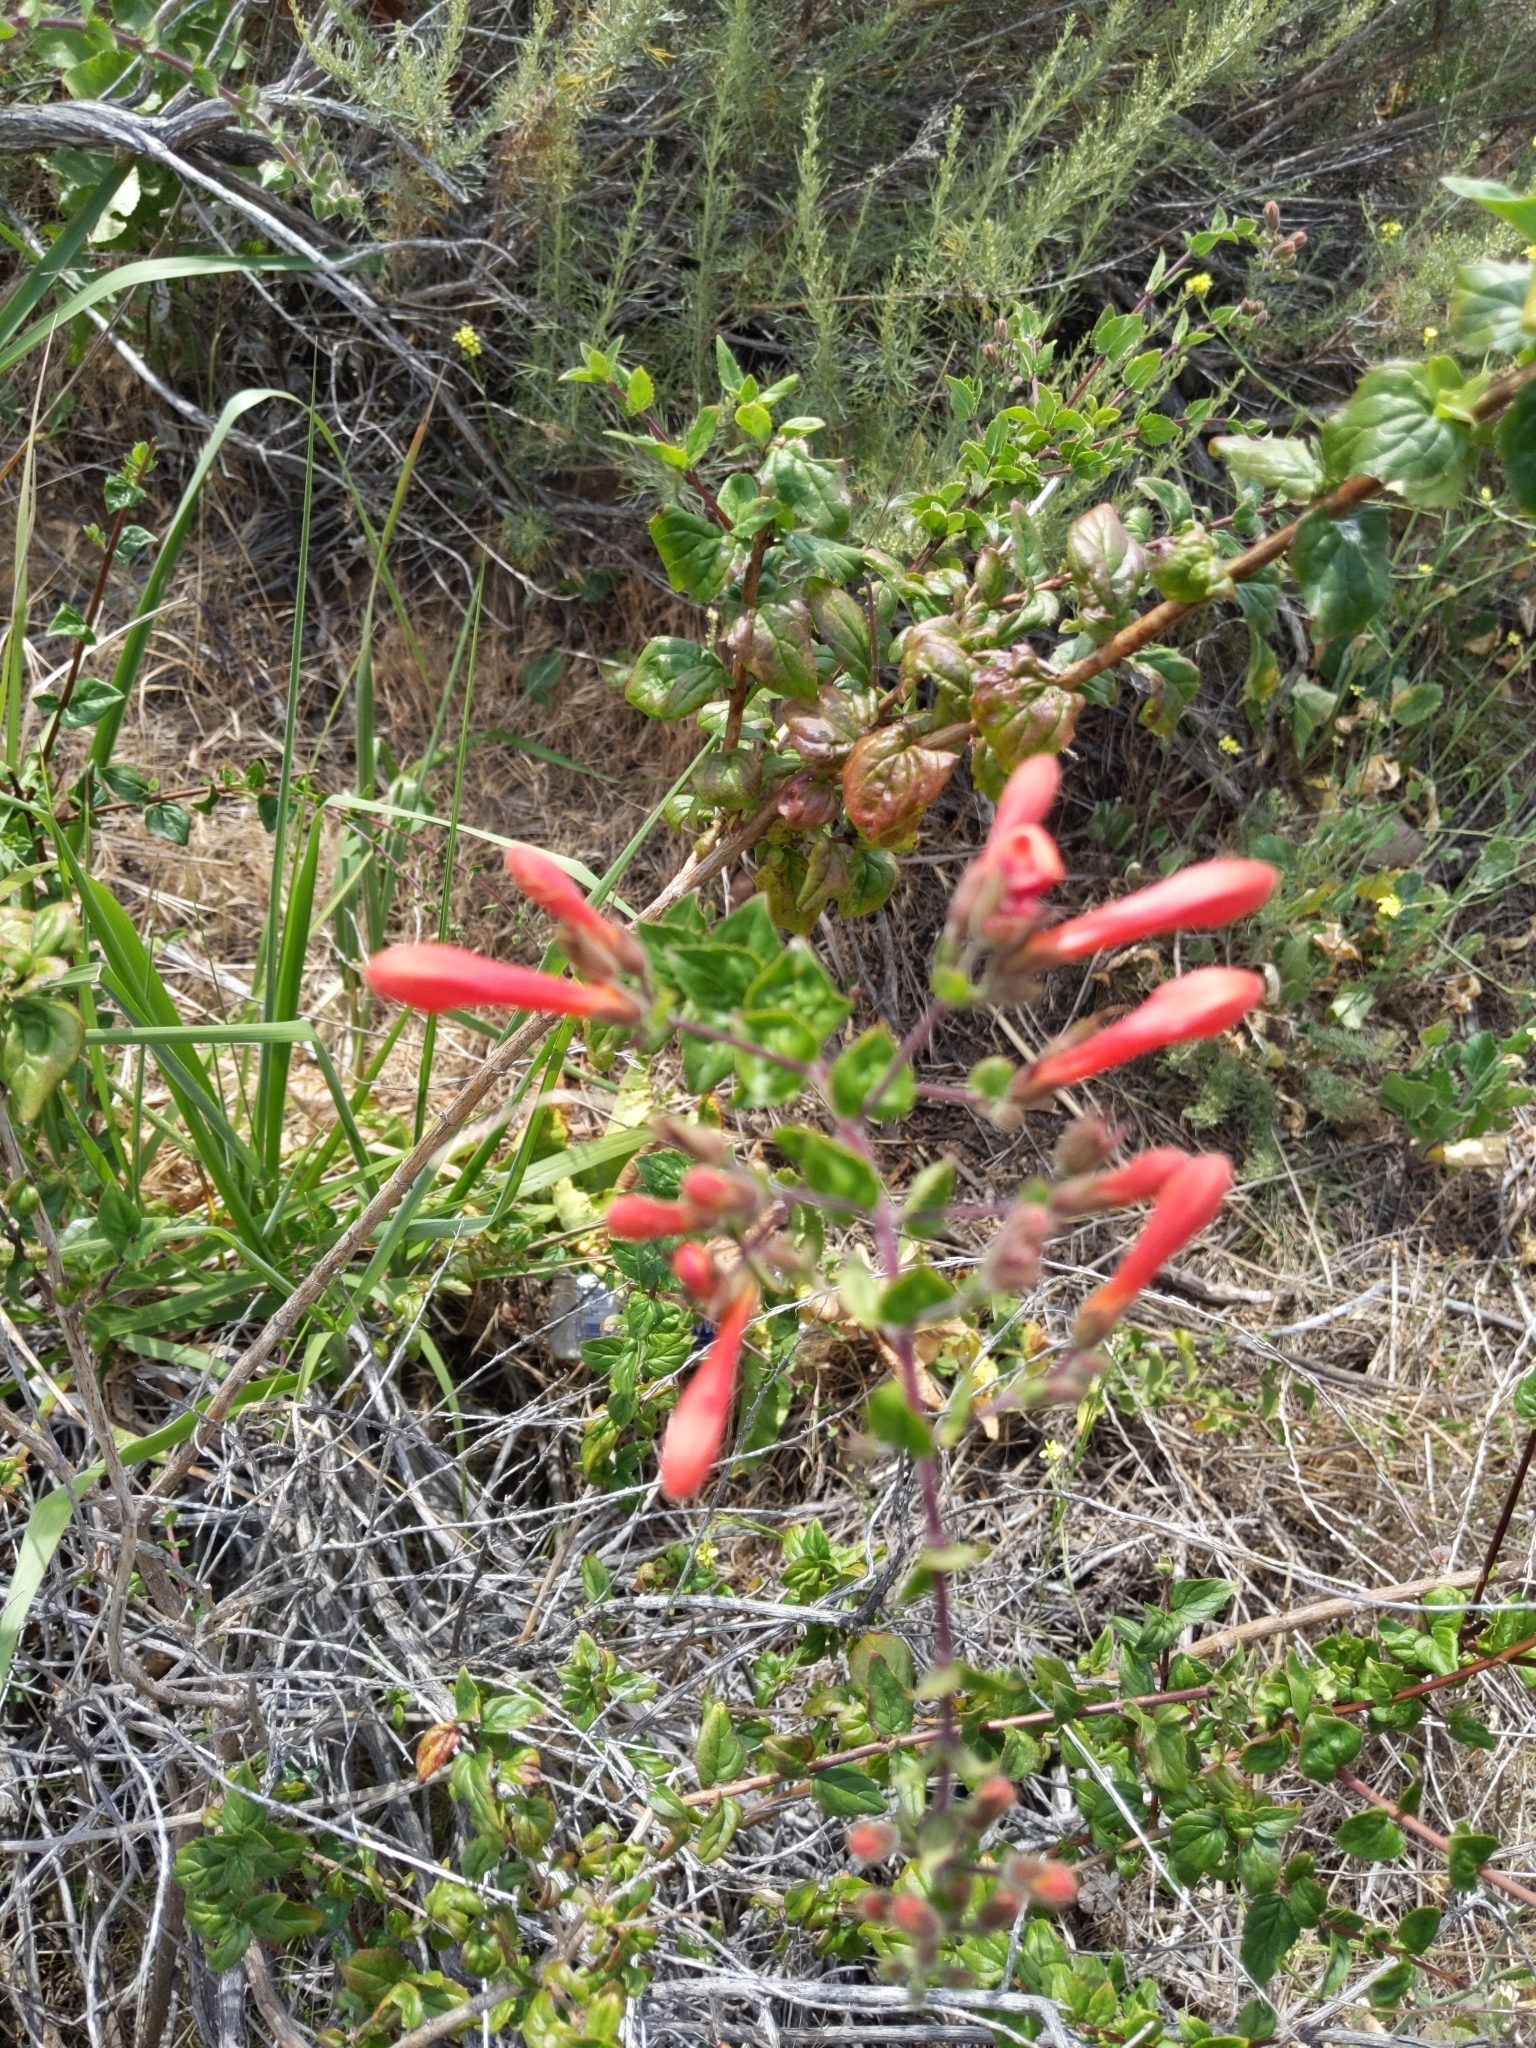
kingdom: Plantae
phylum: Tracheophyta
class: Magnoliopsida
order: Lamiales
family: Plantaginaceae
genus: Keckiella
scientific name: Keckiella cordifolia
